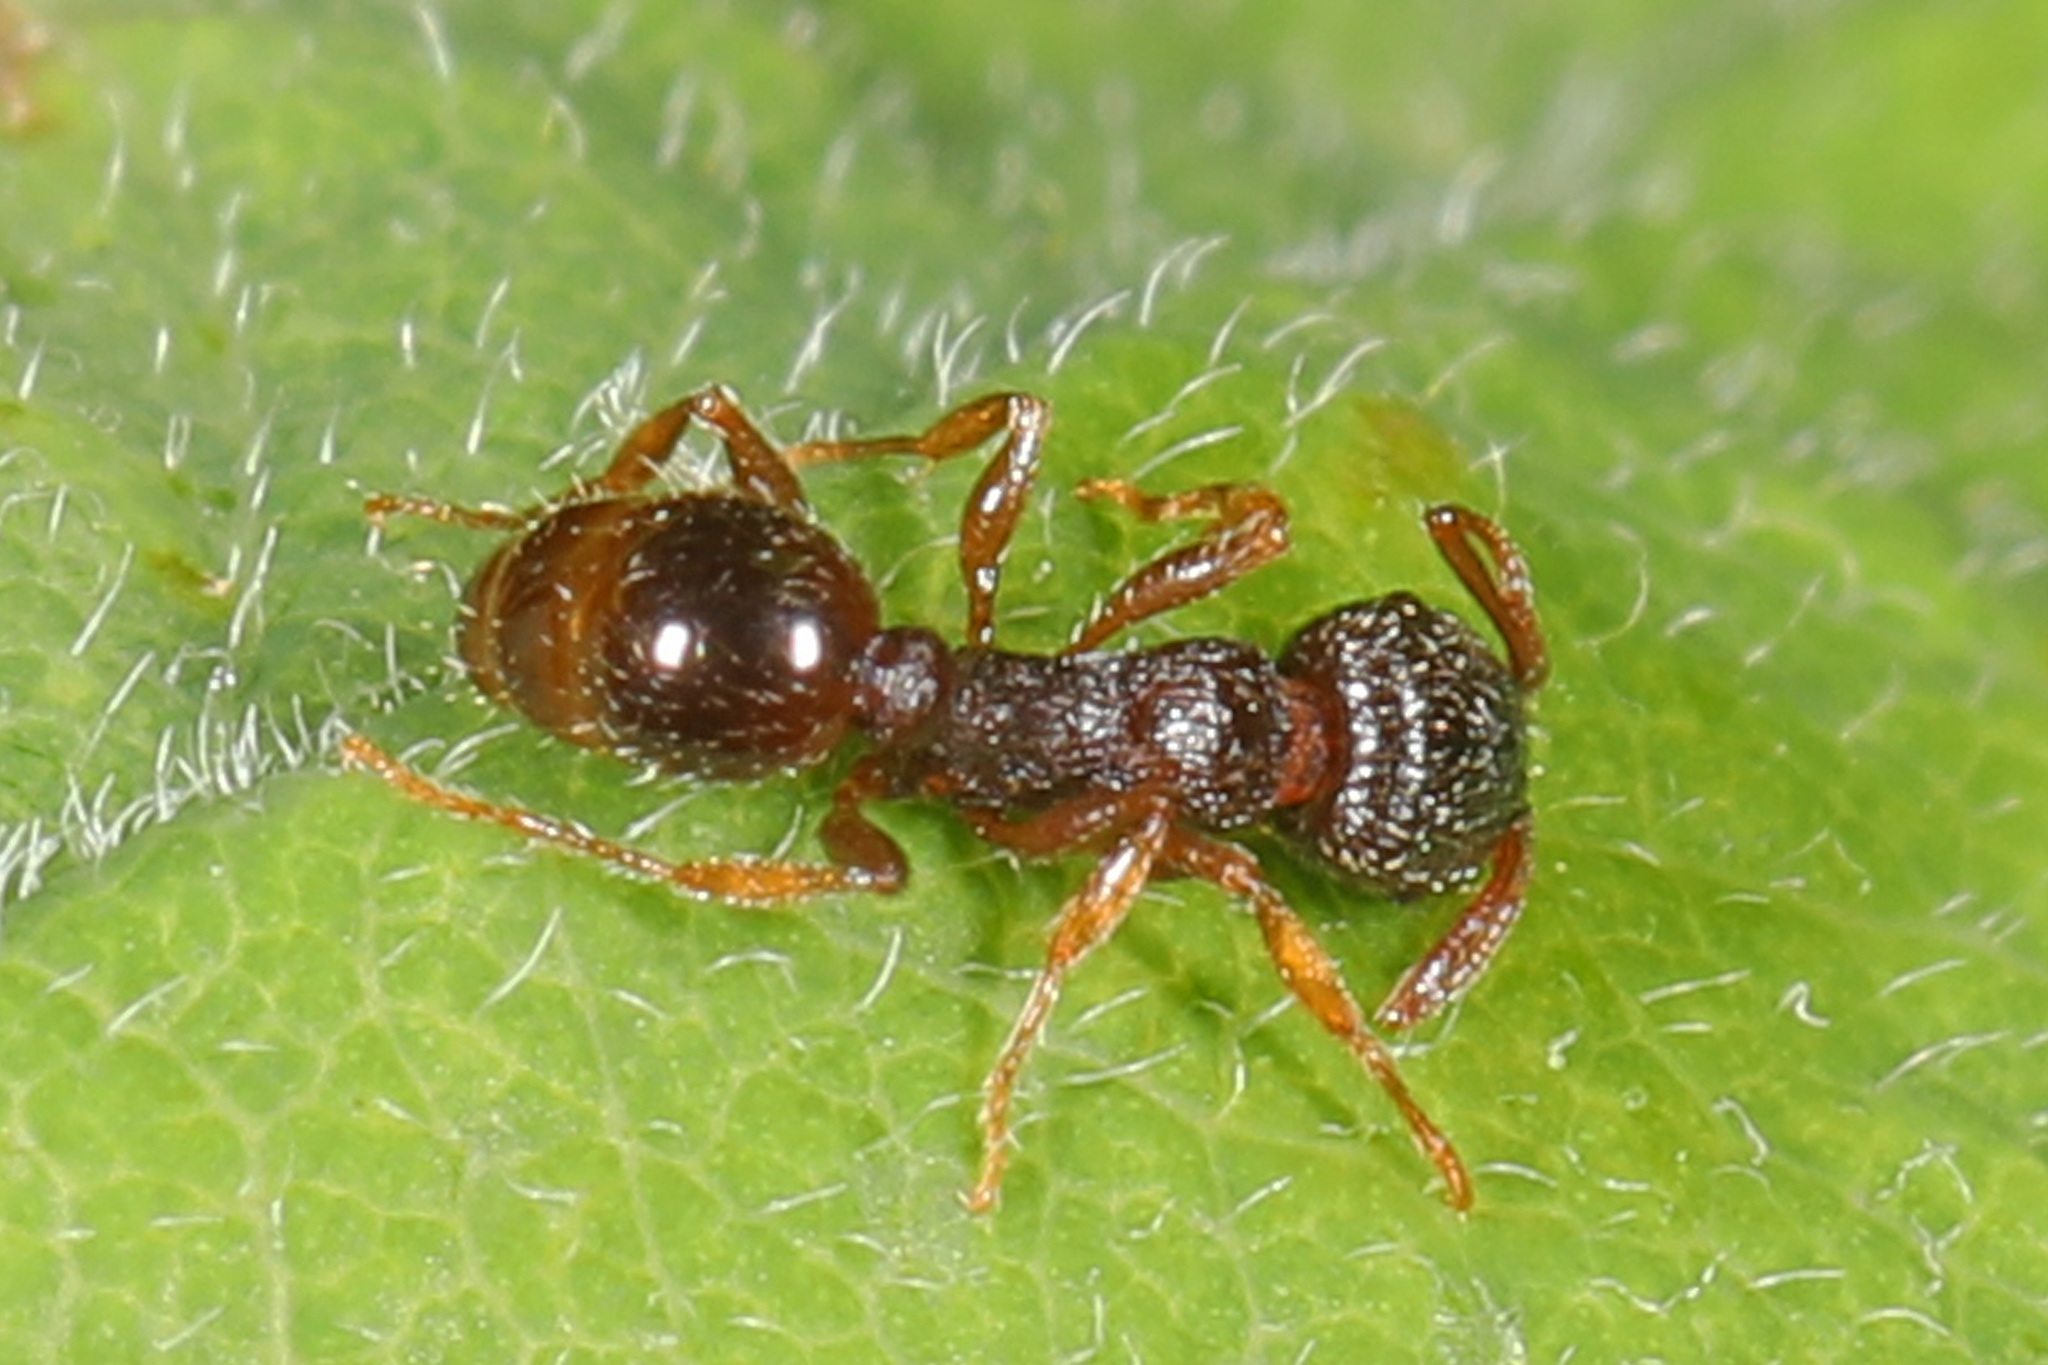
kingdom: Animalia
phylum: Arthropoda
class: Insecta
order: Hymenoptera
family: Formicidae
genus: Tetramorium
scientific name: Tetramorium immigrans
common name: Pavement ant
